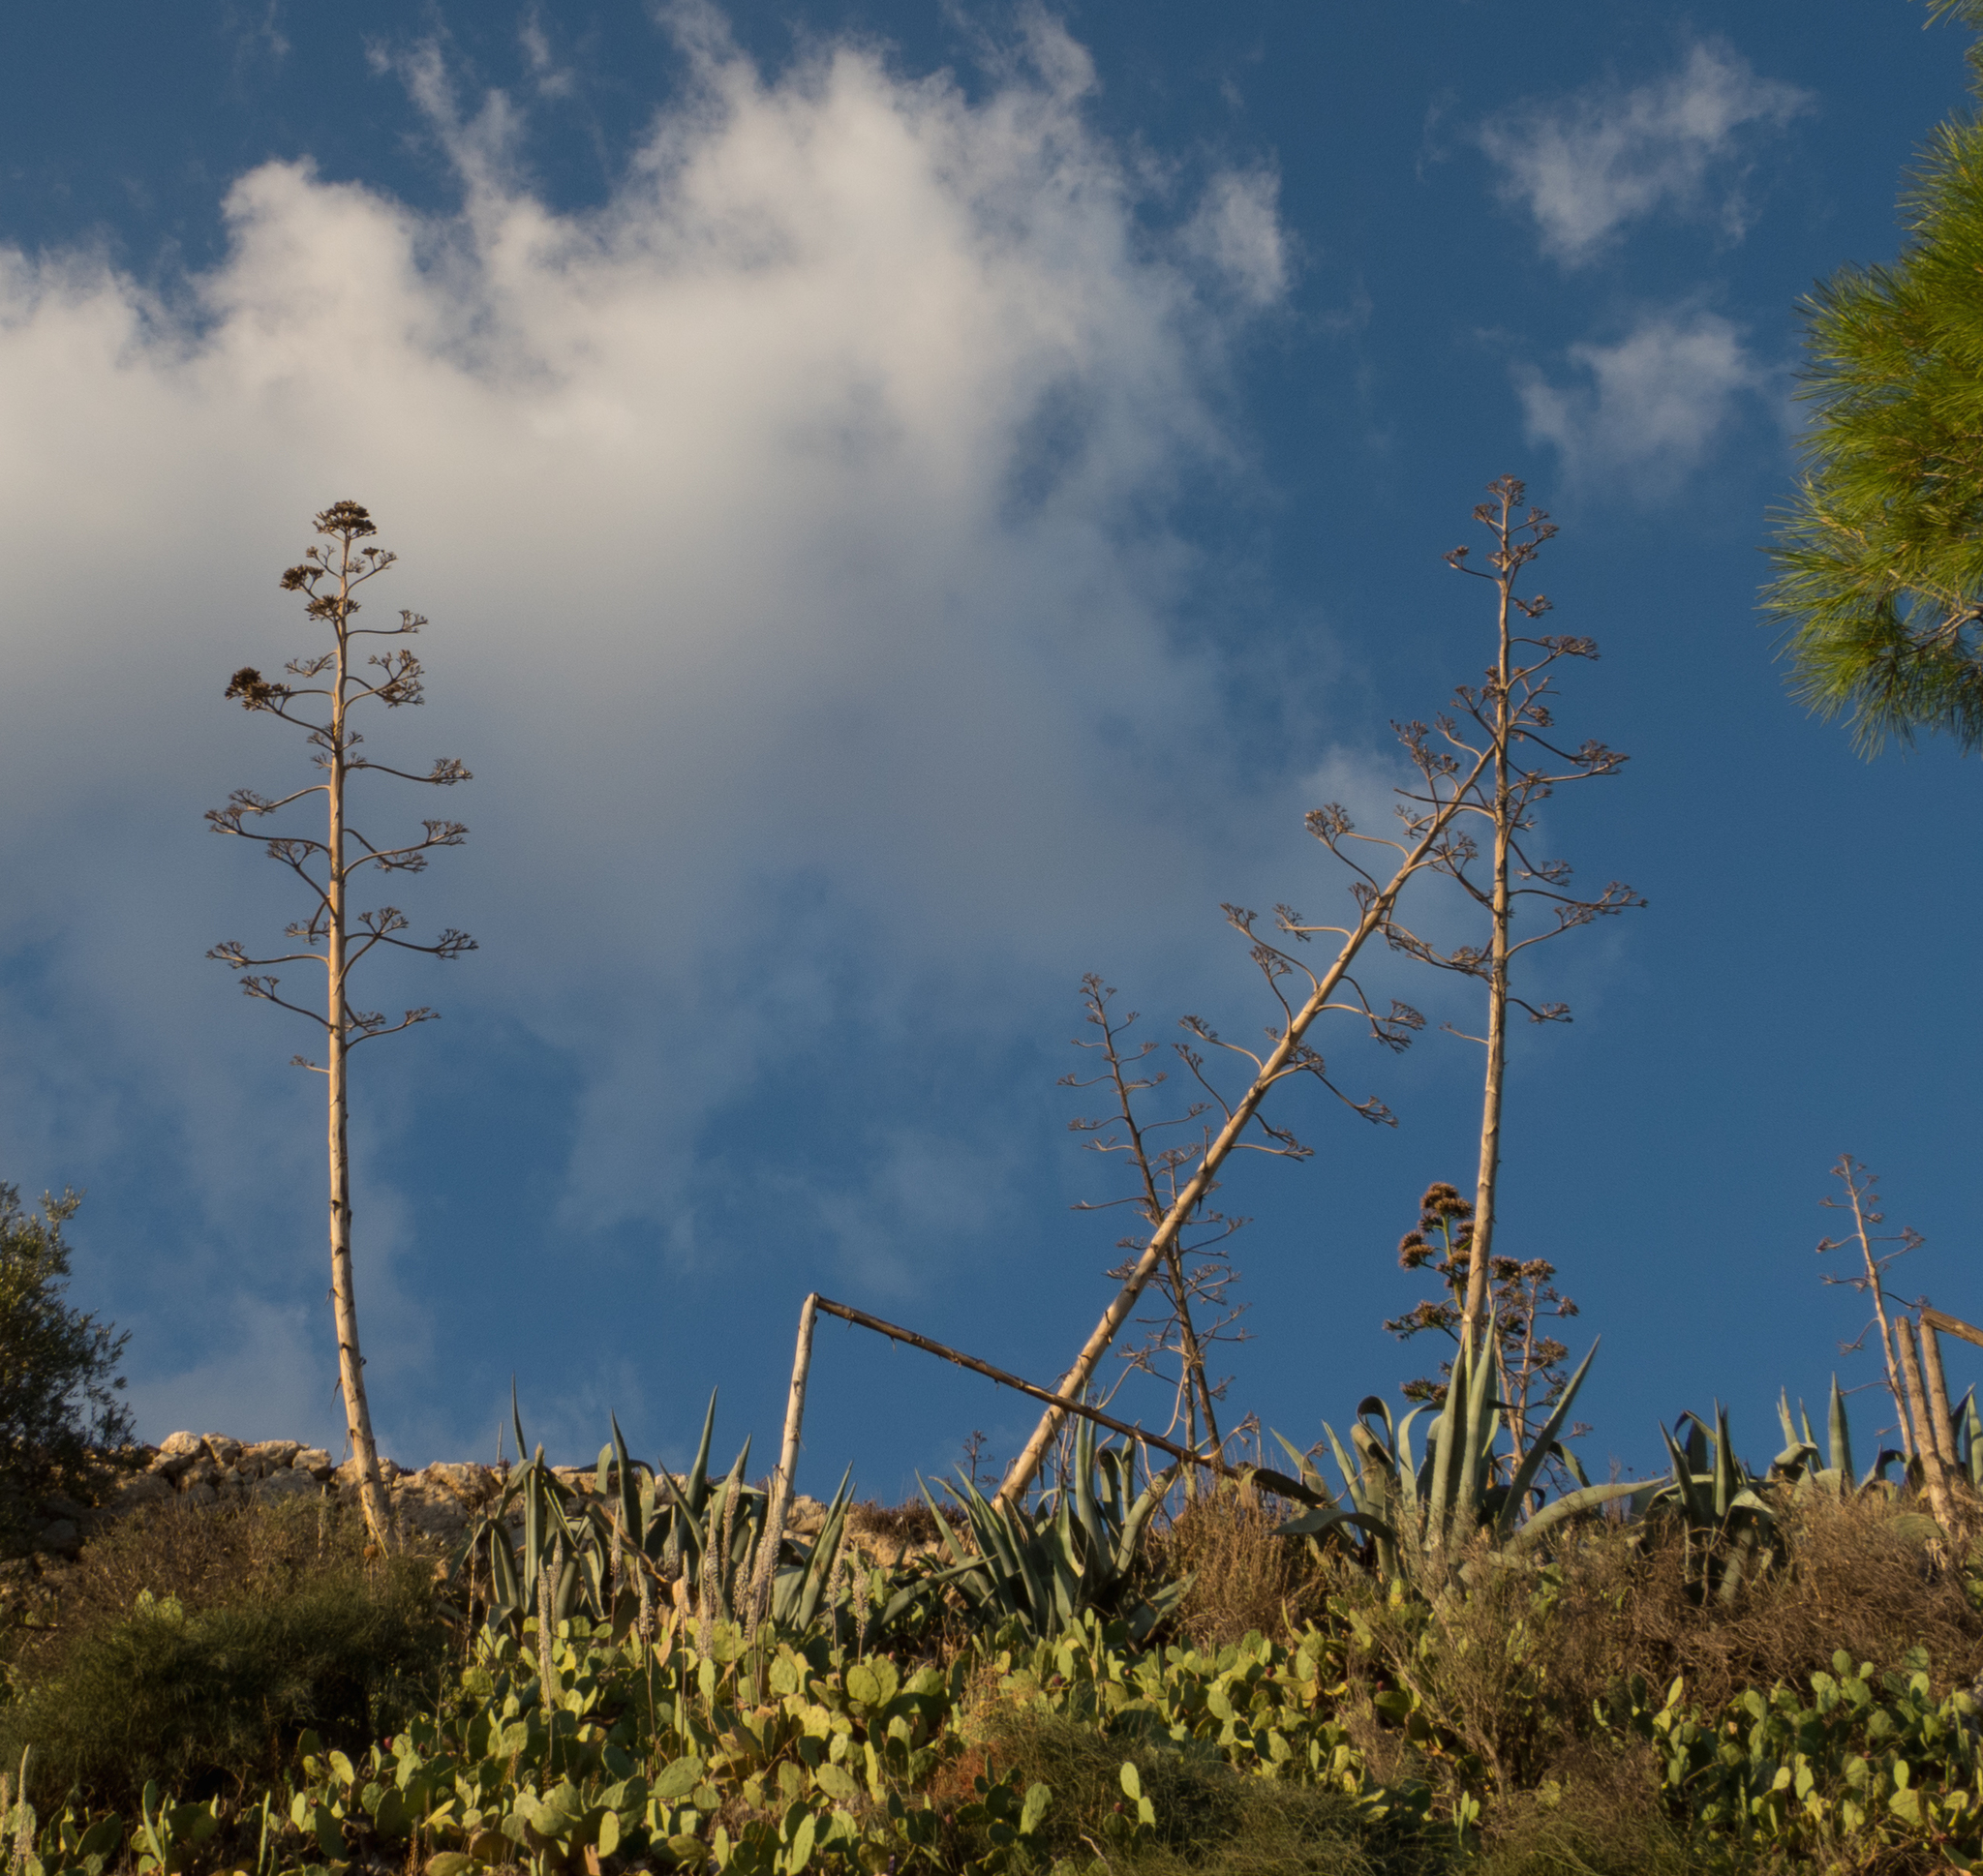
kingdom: Plantae
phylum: Tracheophyta
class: Liliopsida
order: Asparagales
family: Asparagaceae
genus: Agave
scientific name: Agave americana
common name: Centuryplant
